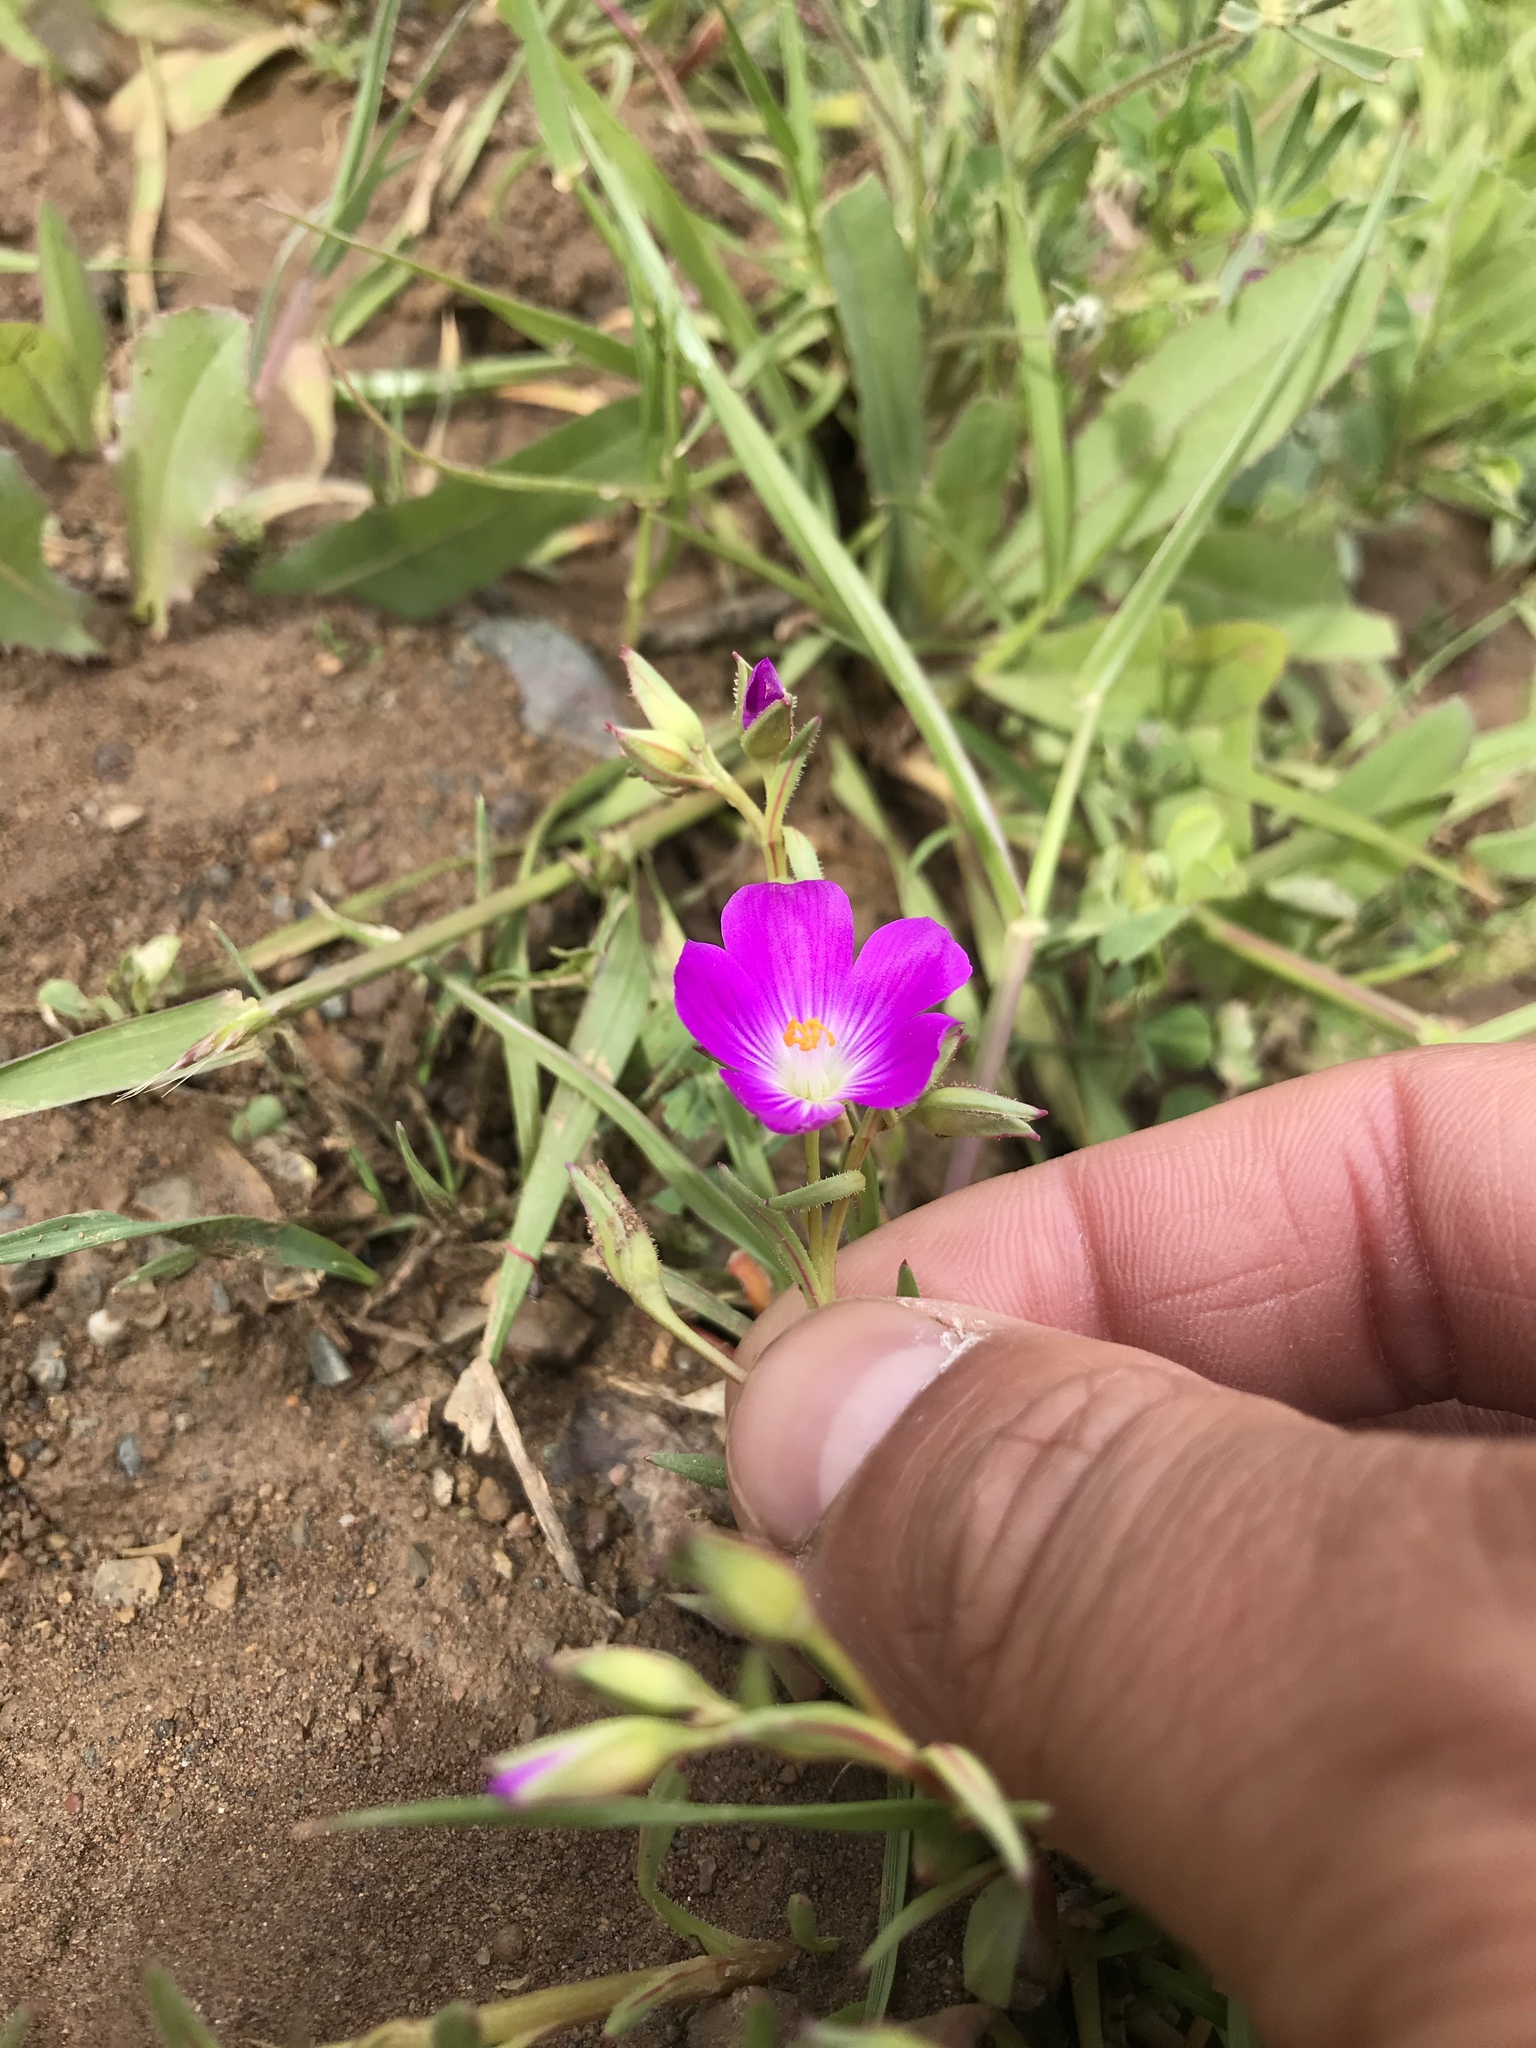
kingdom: Plantae
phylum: Tracheophyta
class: Magnoliopsida
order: Caryophyllales
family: Montiaceae
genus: Calandrinia
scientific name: Calandrinia menziesii
